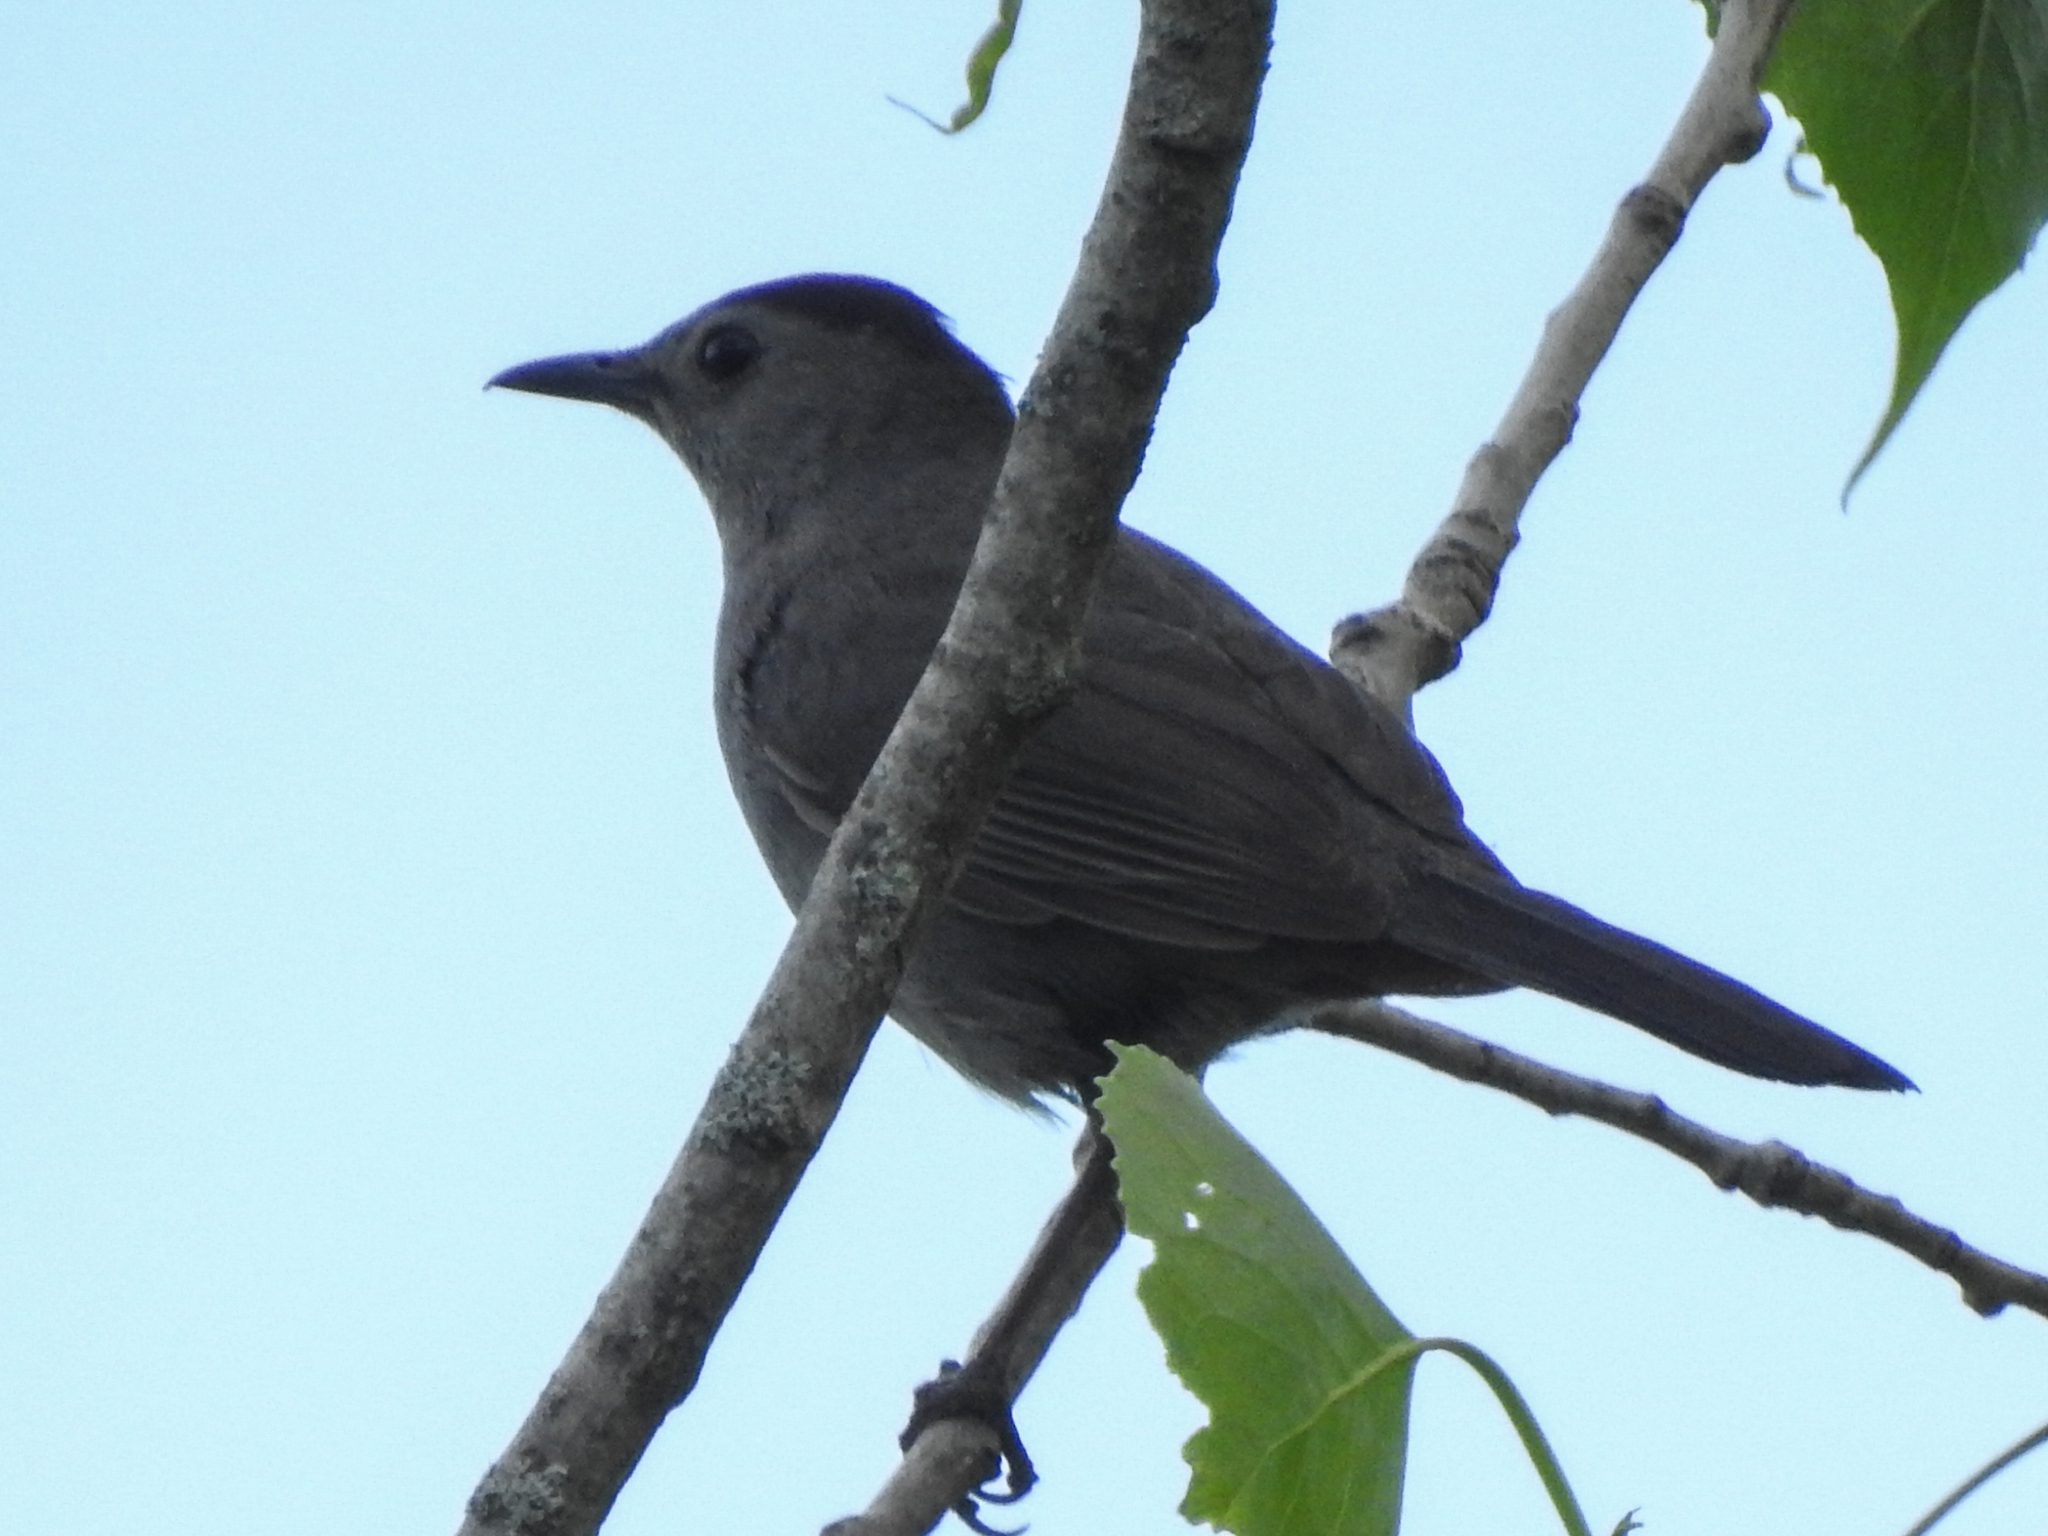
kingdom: Animalia
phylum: Chordata
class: Aves
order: Passeriformes
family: Mimidae
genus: Dumetella
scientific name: Dumetella carolinensis
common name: Gray catbird
